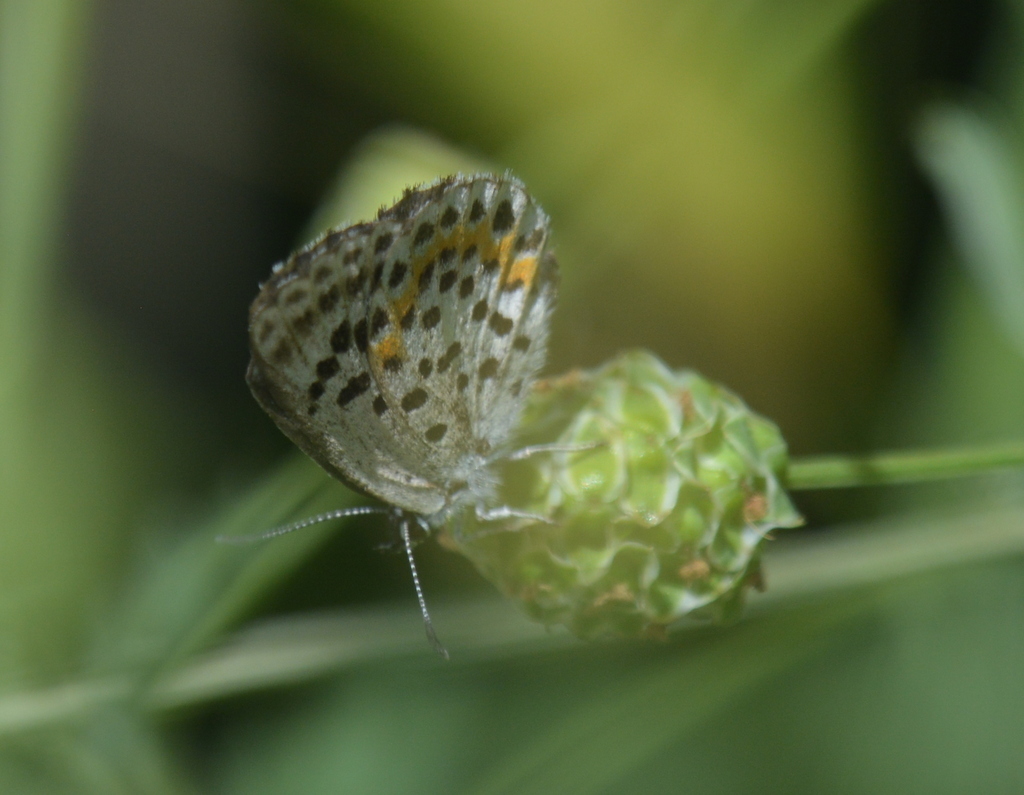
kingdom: Animalia
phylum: Arthropoda
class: Insecta
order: Lepidoptera
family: Lycaenidae
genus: Scolitantides
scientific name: Scolitantides orion
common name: Chequered blue
